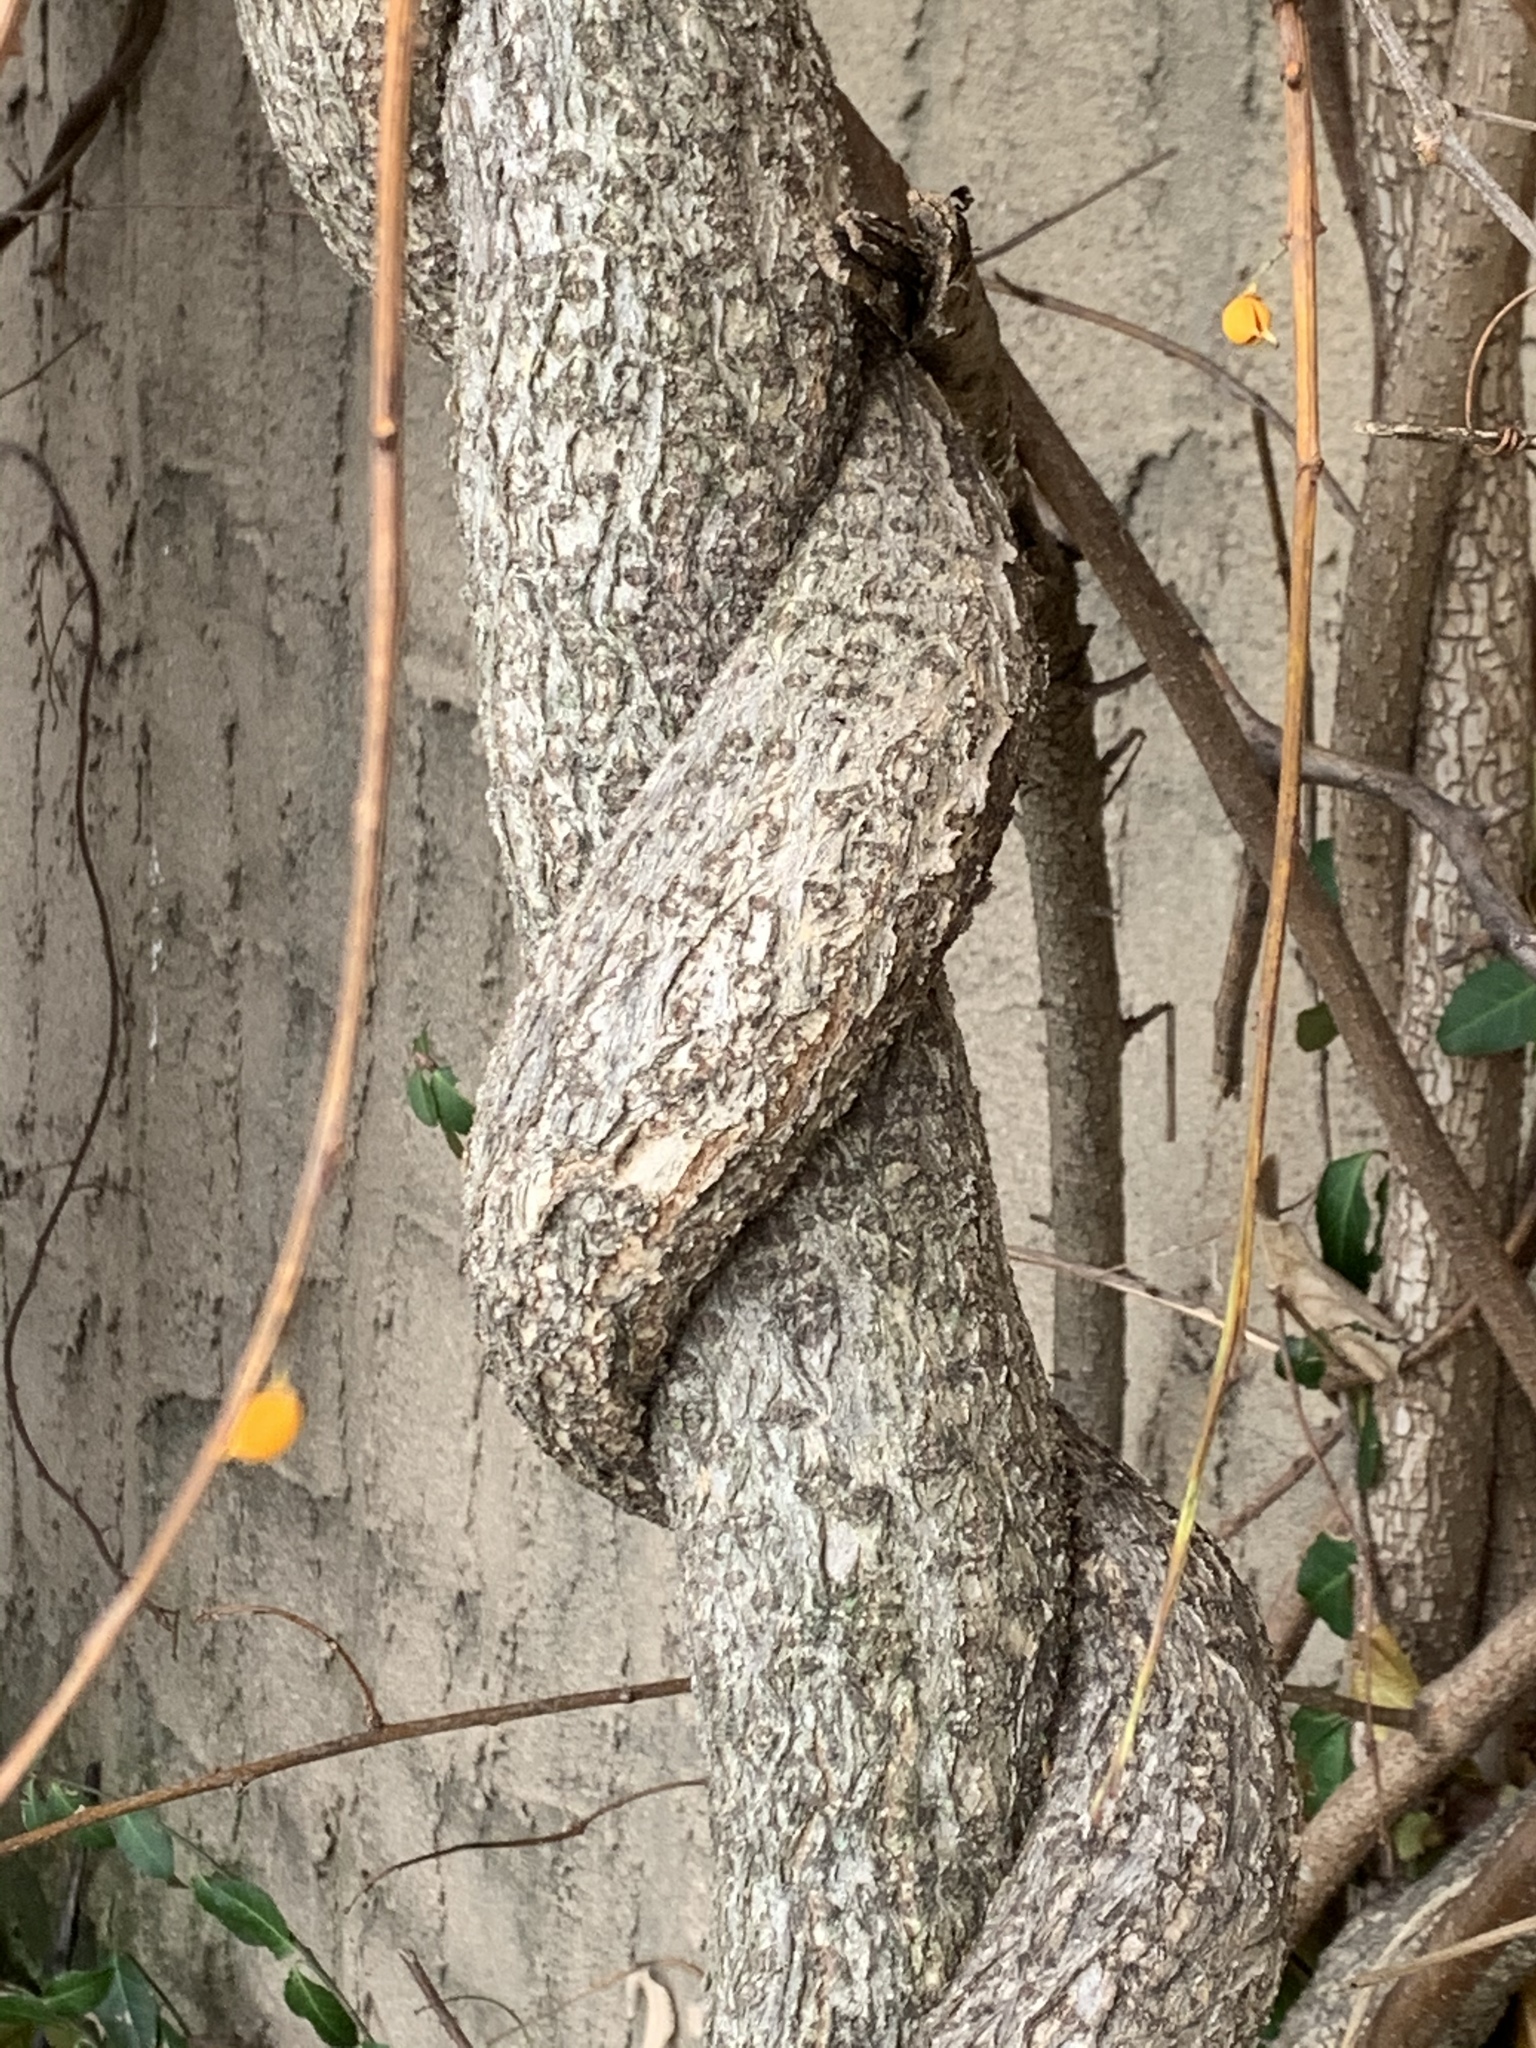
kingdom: Plantae
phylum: Tracheophyta
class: Magnoliopsida
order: Celastrales
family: Celastraceae
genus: Celastrus
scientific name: Celastrus orbiculatus
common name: Oriental bittersweet
